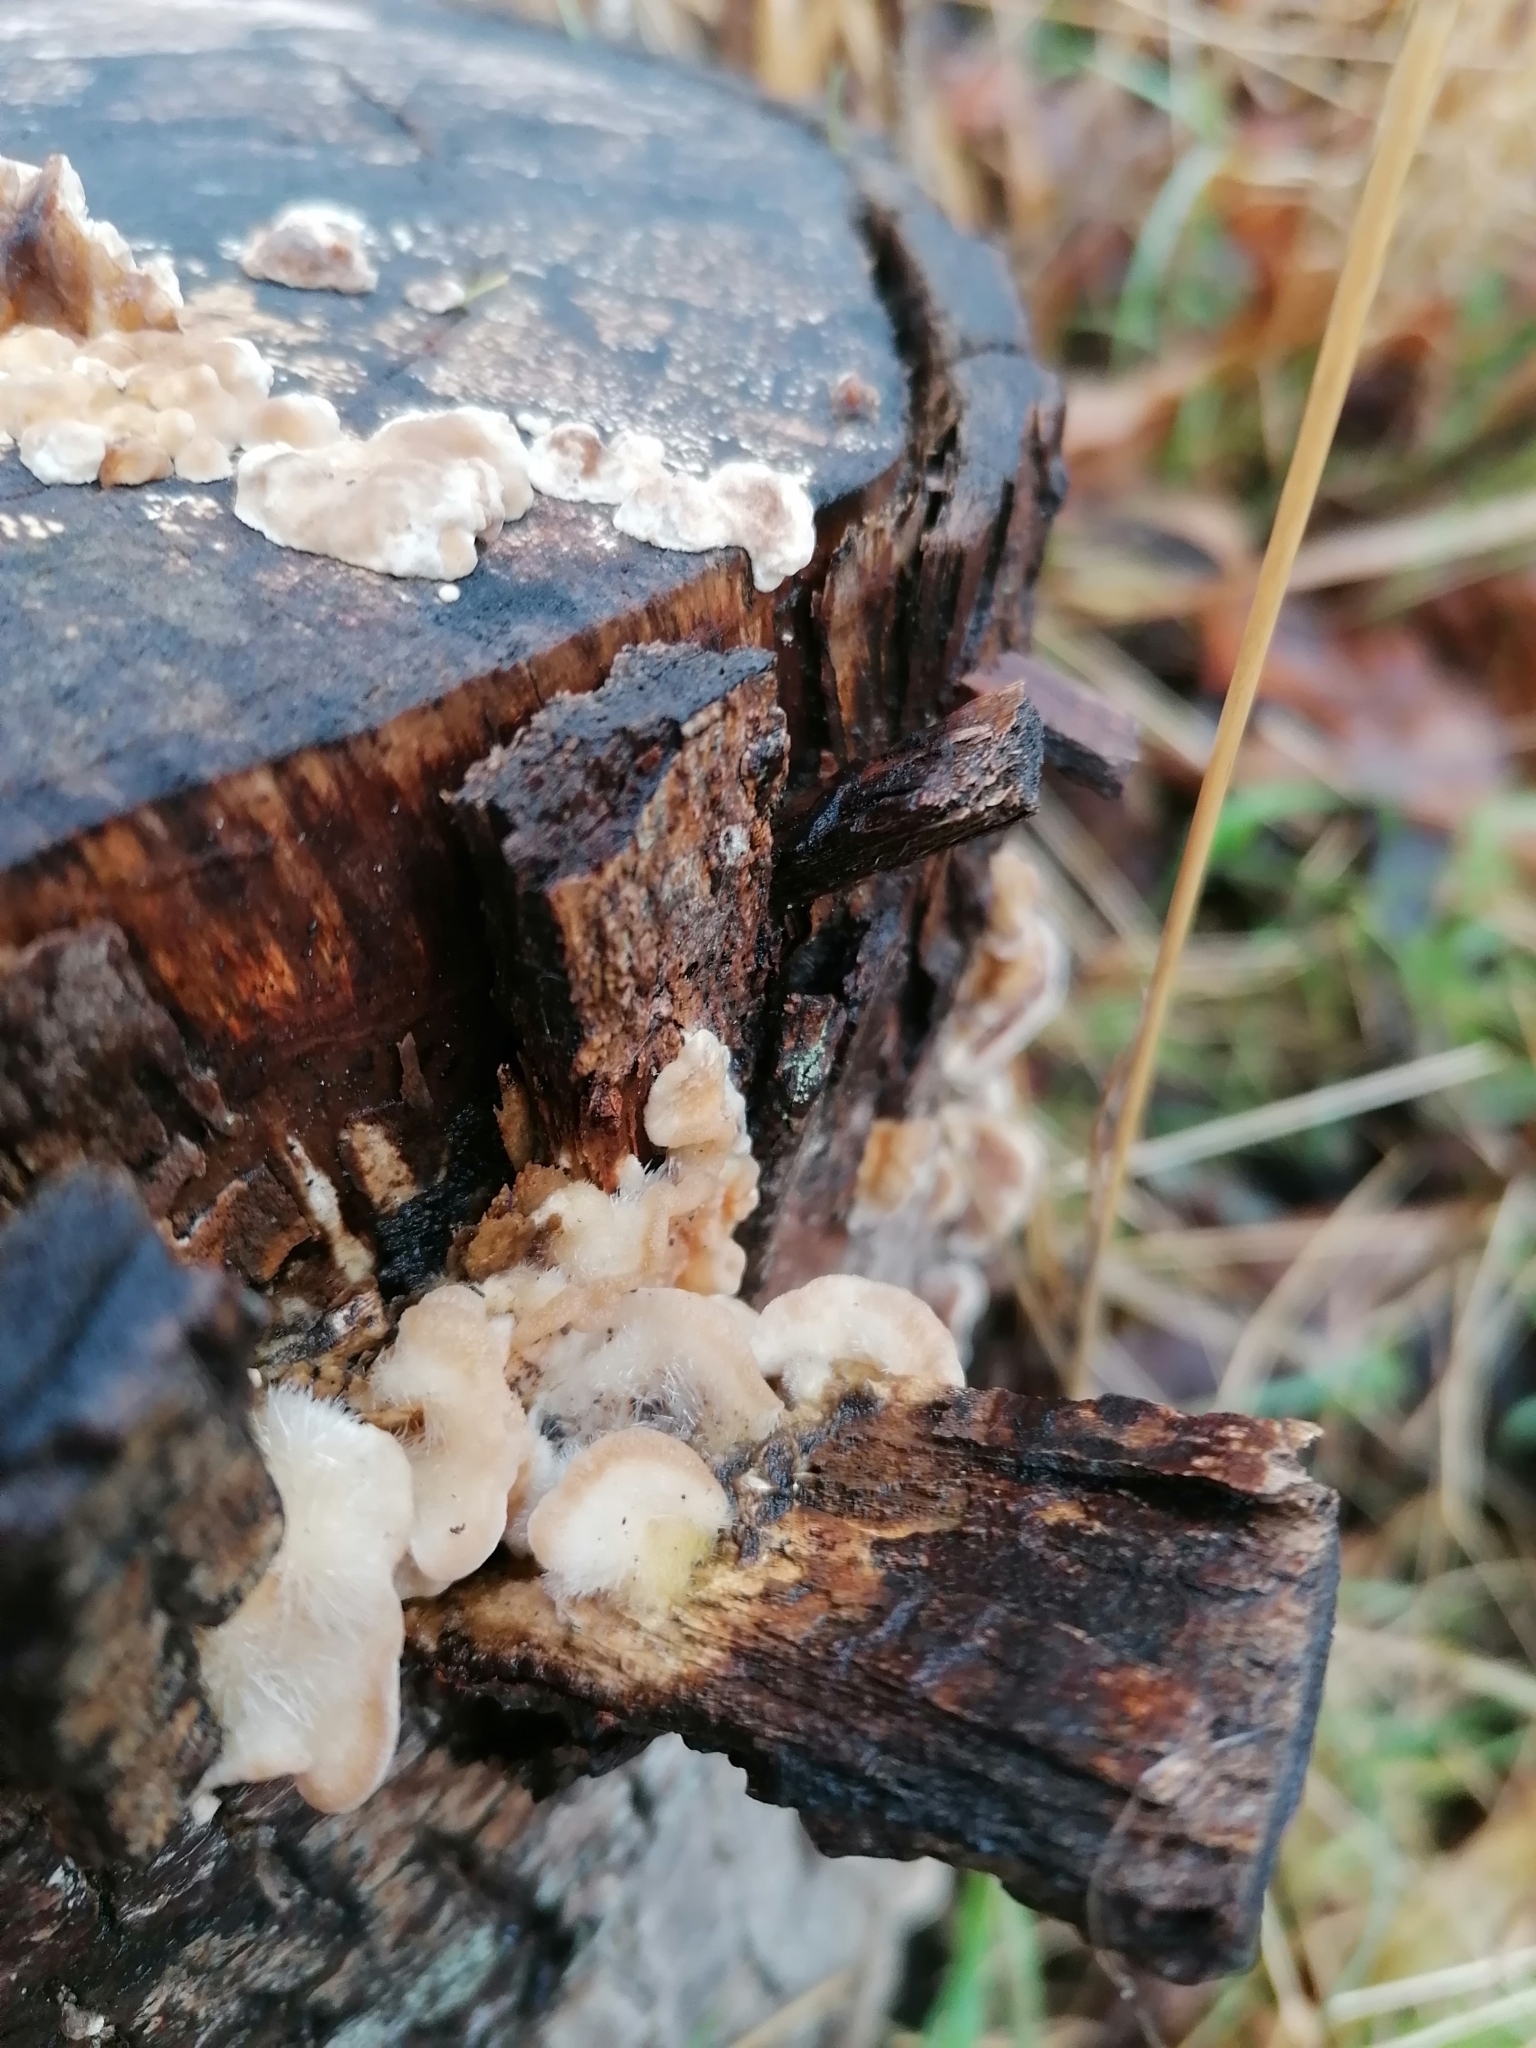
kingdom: Fungi
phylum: Basidiomycota
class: Agaricomycetes
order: Polyporales
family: Polyporaceae
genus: Trametes
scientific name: Trametes hirsuta
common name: Hairy bracket
